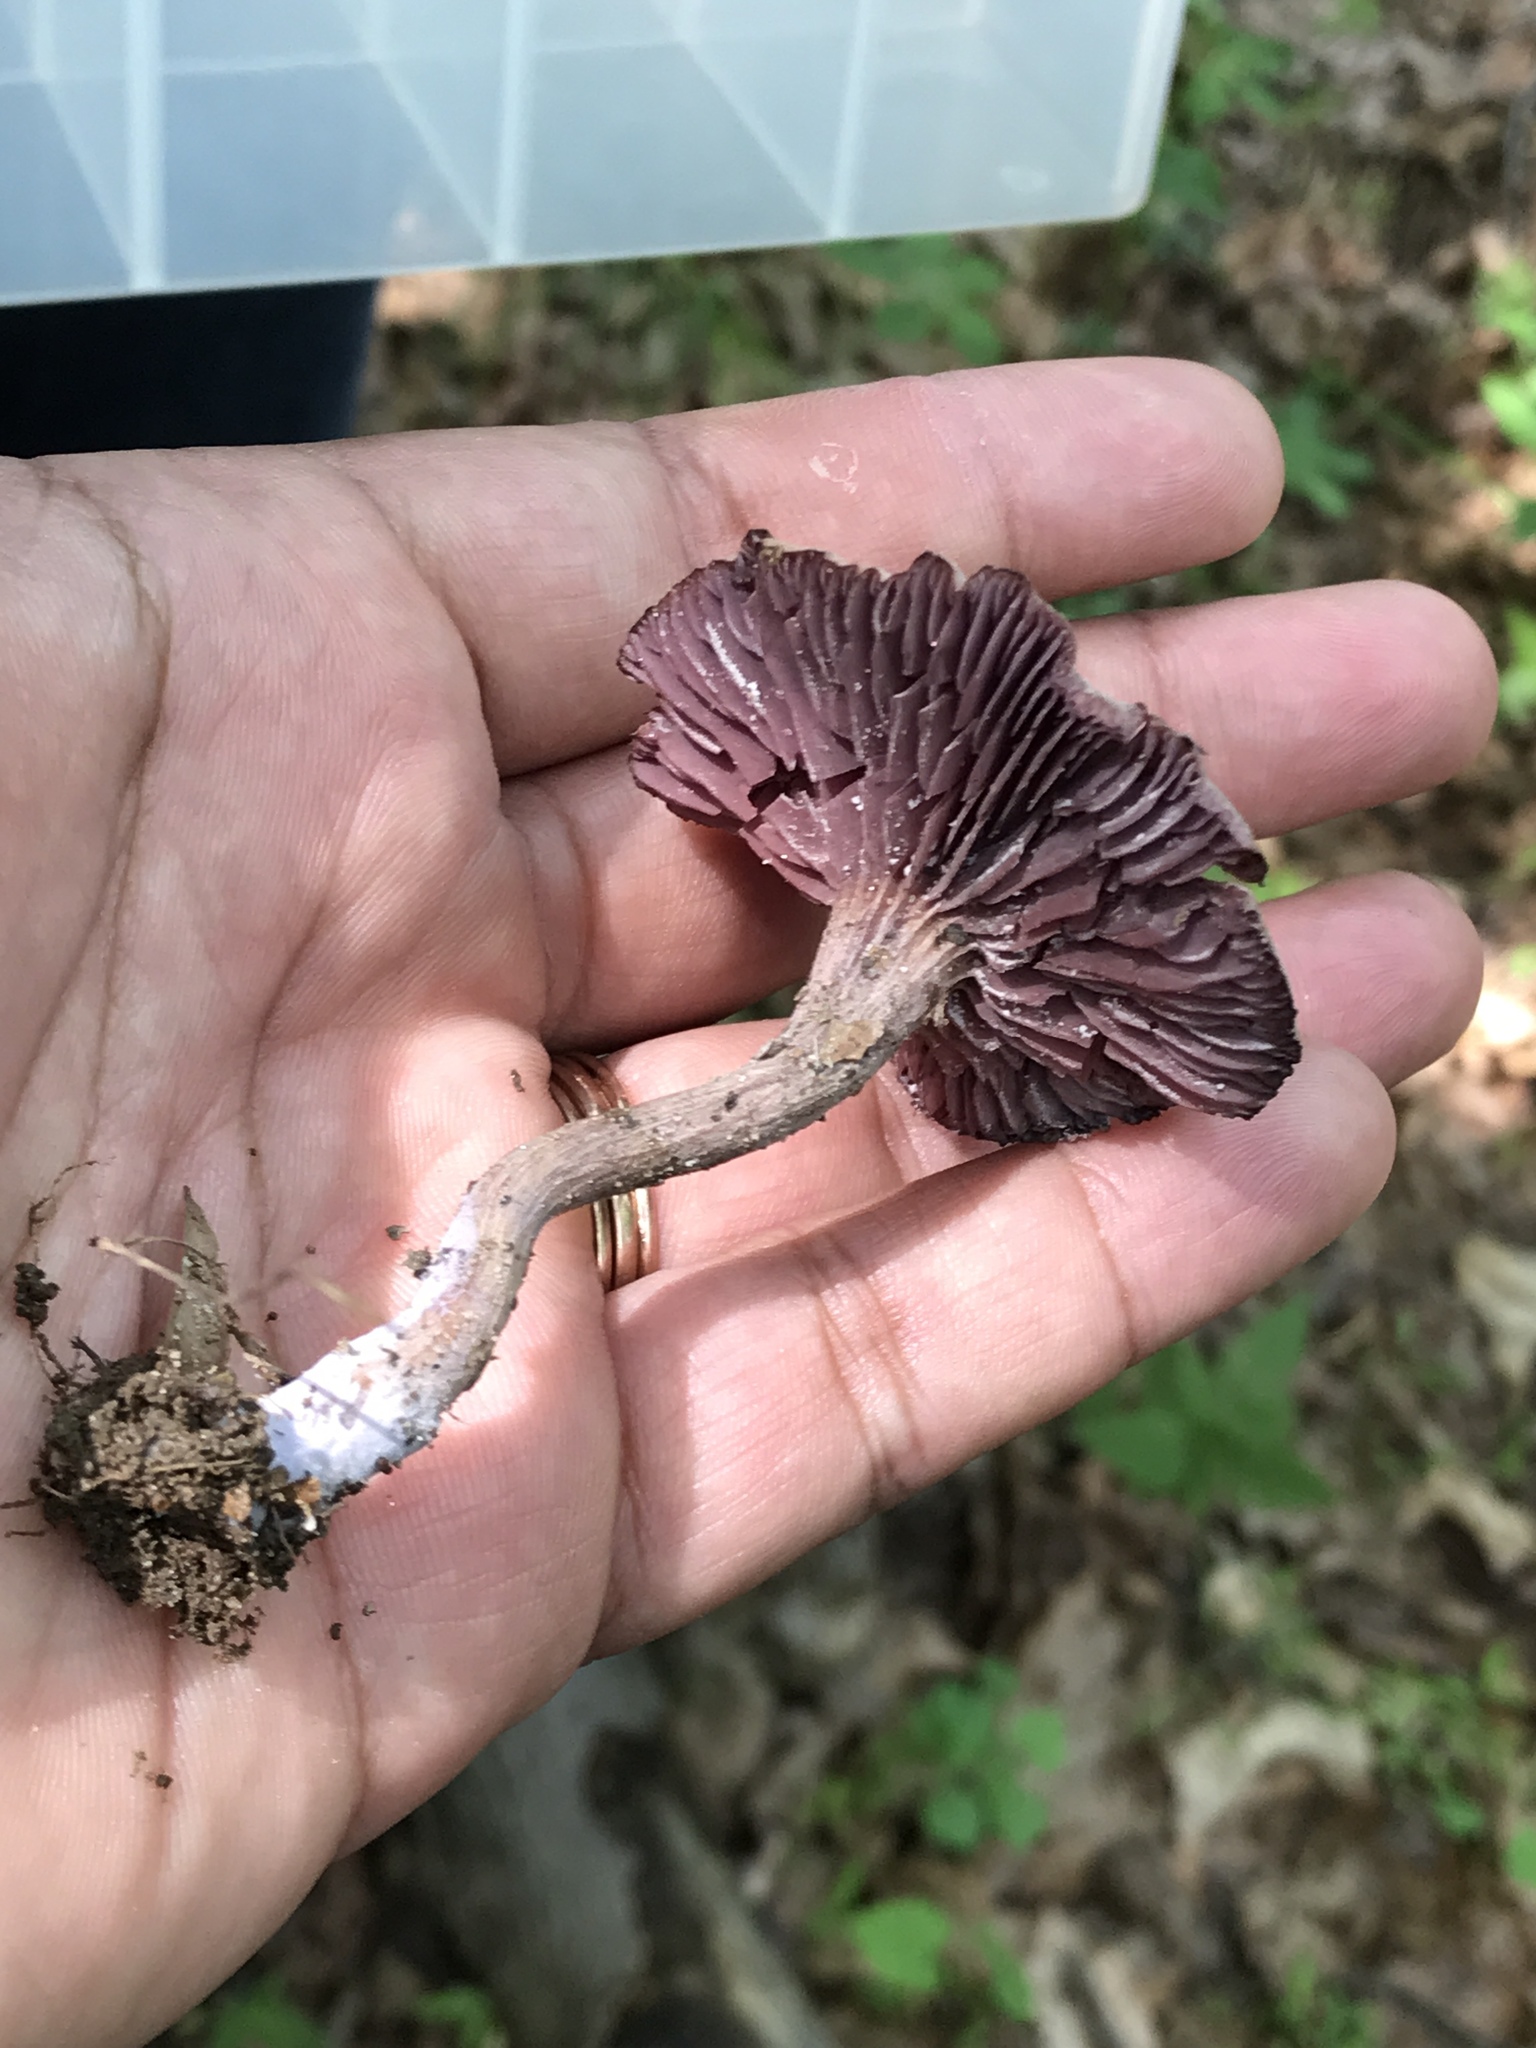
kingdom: Fungi
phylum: Basidiomycota
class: Agaricomycetes
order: Agaricales
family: Hydnangiaceae
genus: Laccaria
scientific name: Laccaria ochropurpurea
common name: Purple laccaria
